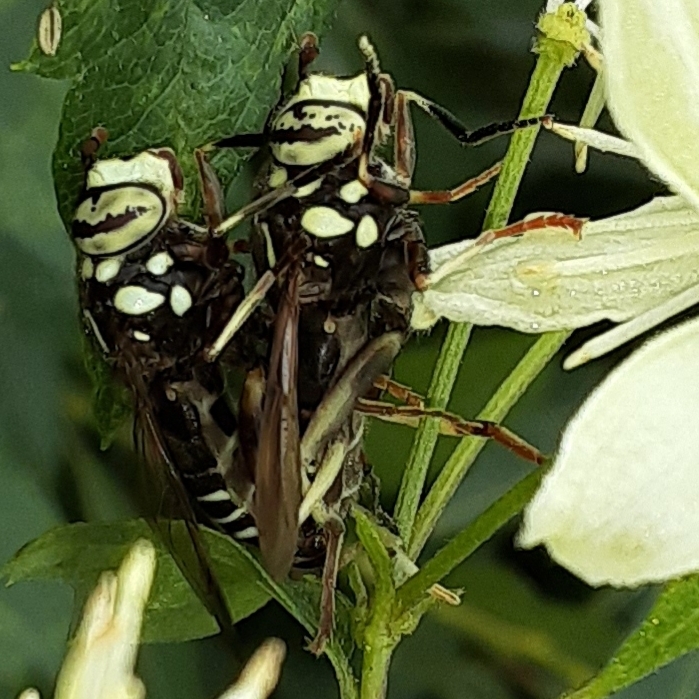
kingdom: Animalia
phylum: Arthropoda
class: Insecta
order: Diptera
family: Syrphidae
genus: Spilomyia
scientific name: Spilomyia fusca
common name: Bald-faced hornet fly
